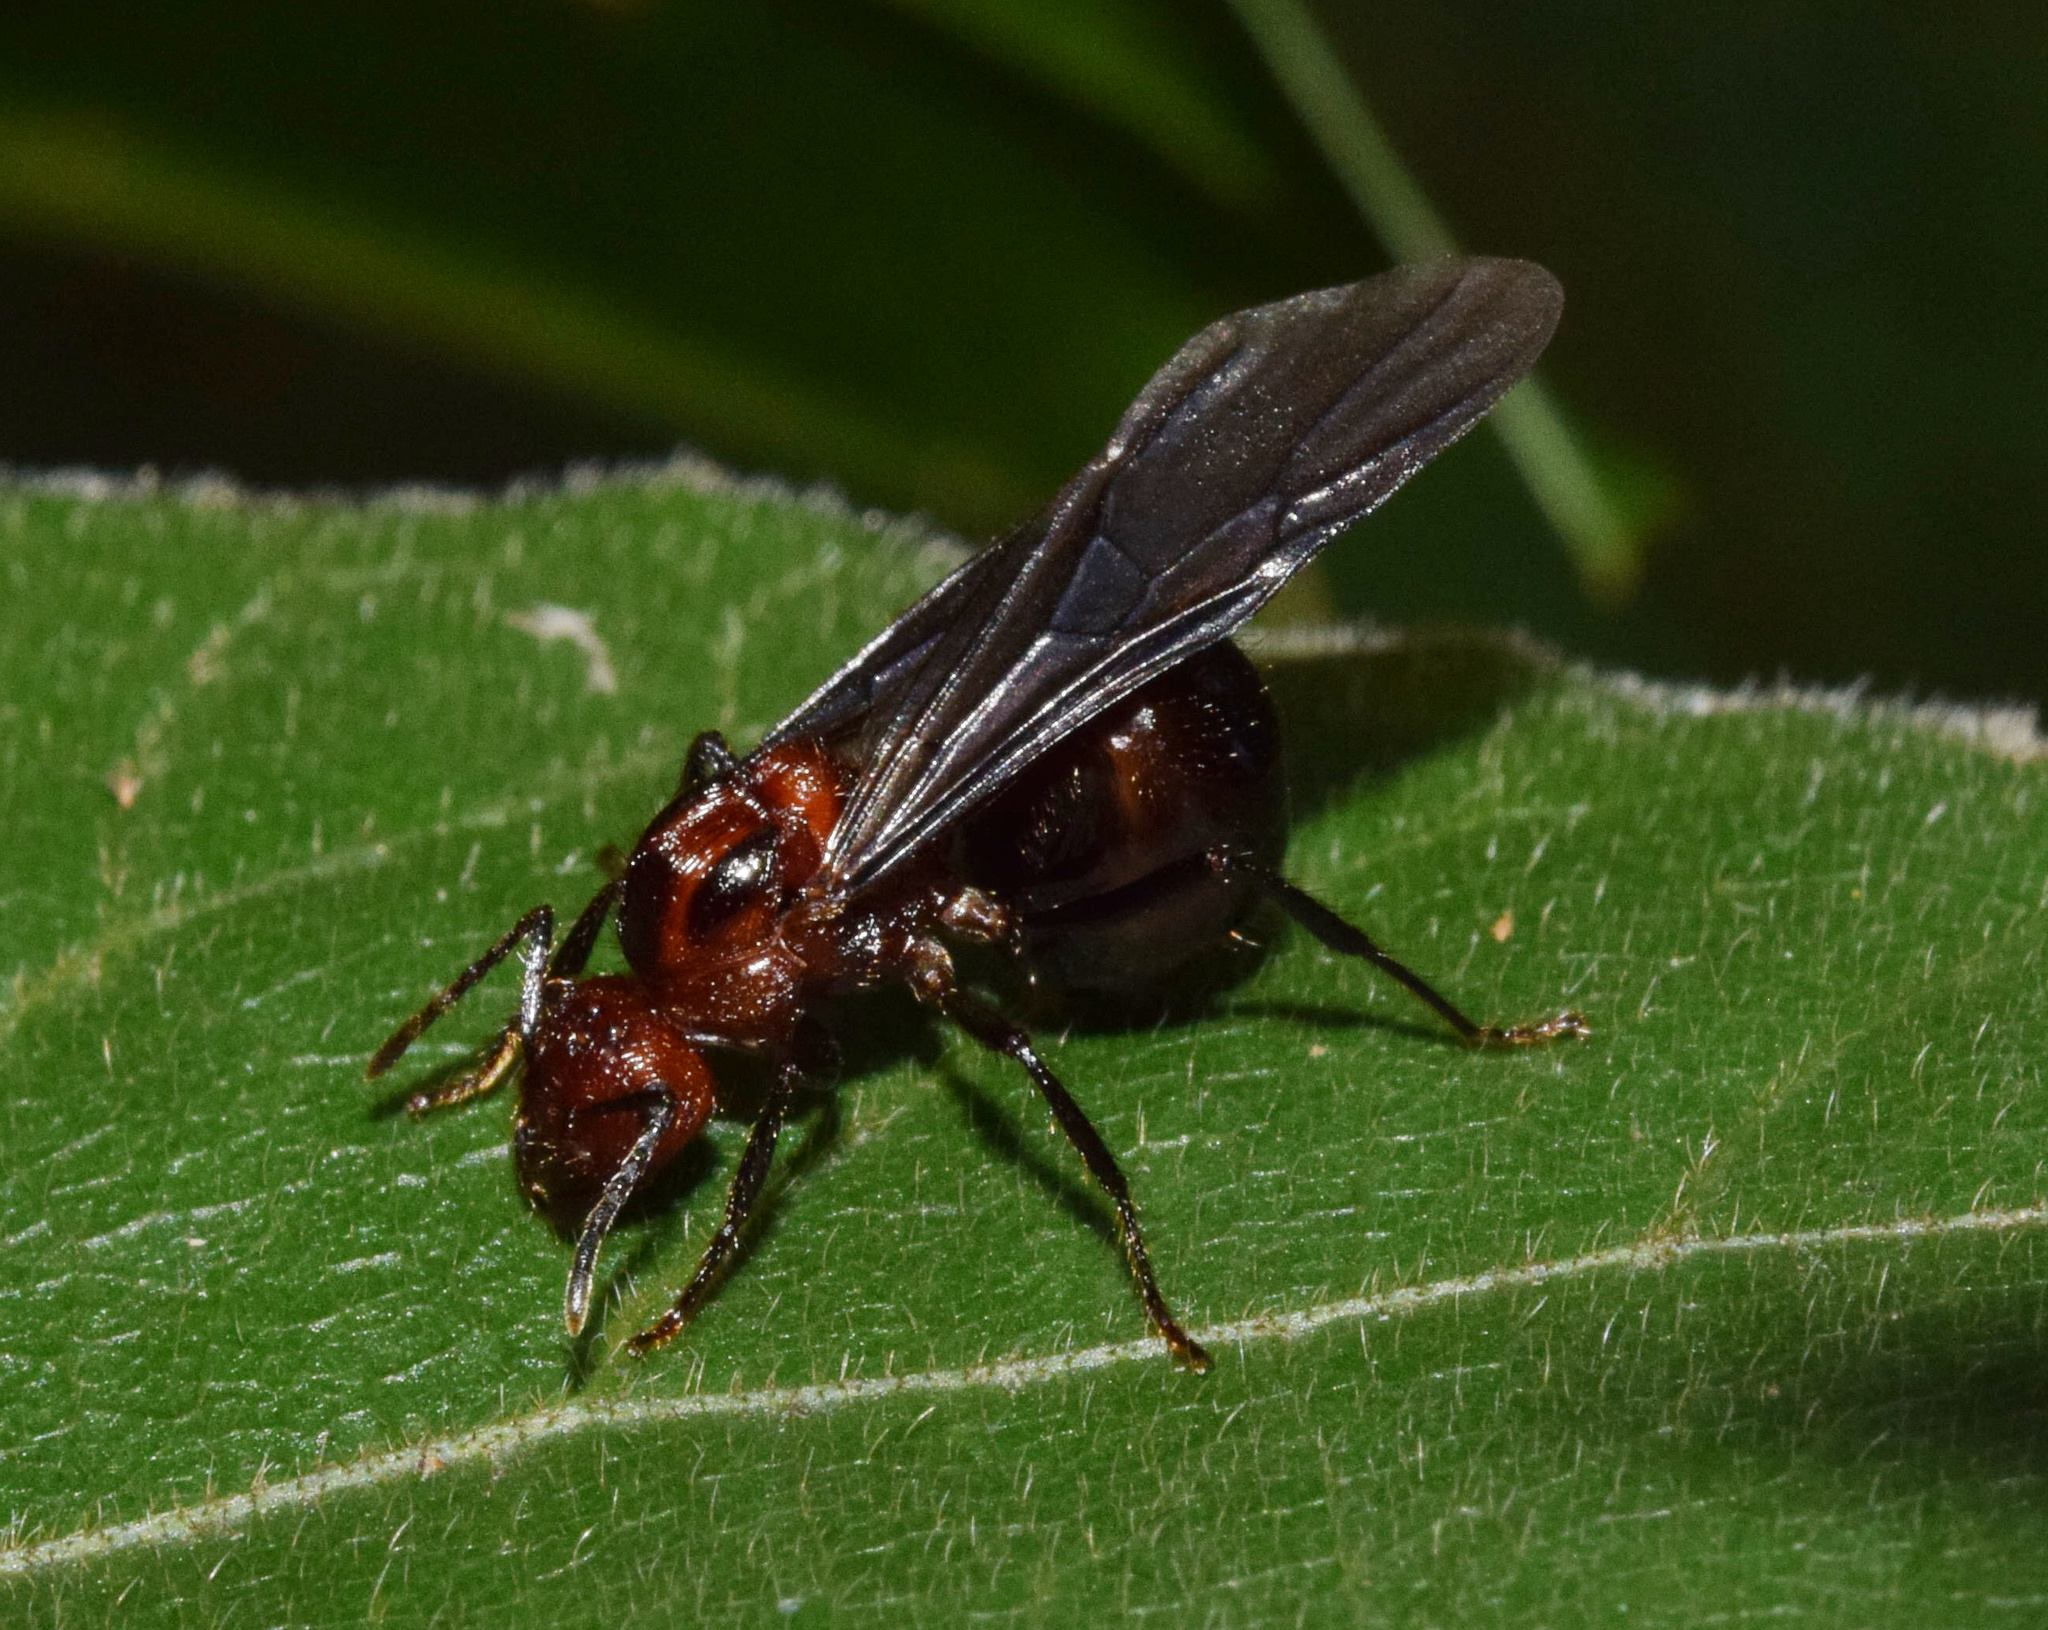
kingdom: Animalia
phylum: Arthropoda
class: Insecta
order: Hymenoptera
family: Formicidae
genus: Myrmicaria
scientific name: Myrmicaria natalensis
